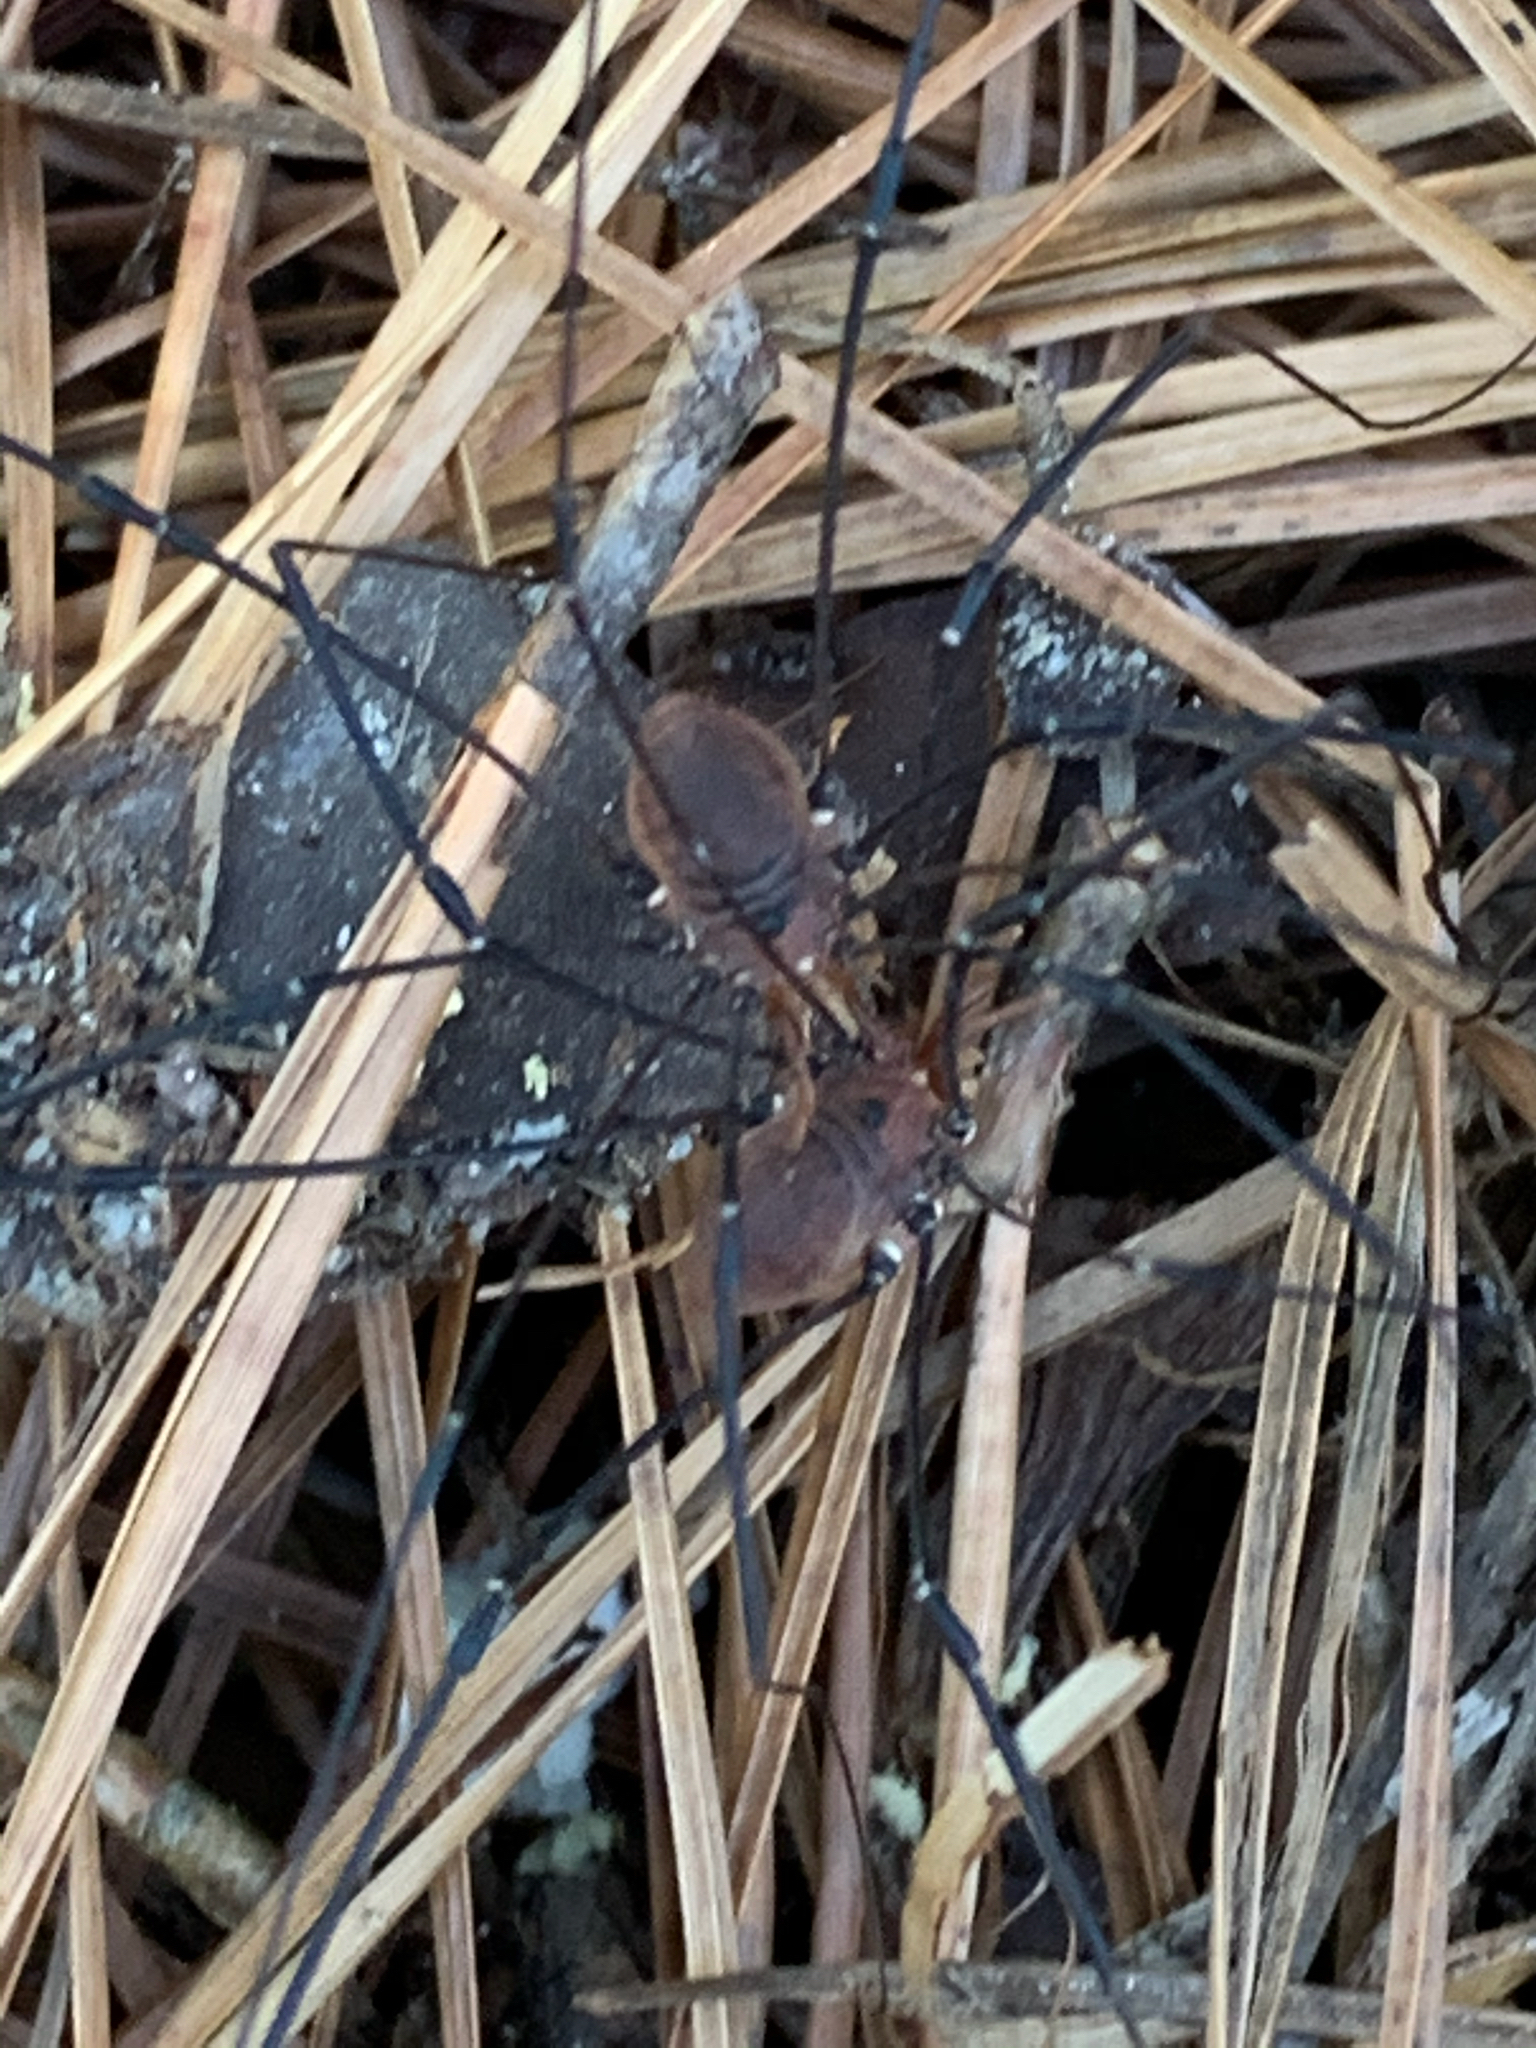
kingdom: Animalia
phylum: Arthropoda
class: Arachnida
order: Opiliones
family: Sclerosomatidae
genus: Leiobunum
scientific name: Leiobunum vittatum
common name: Eastern harvestman
